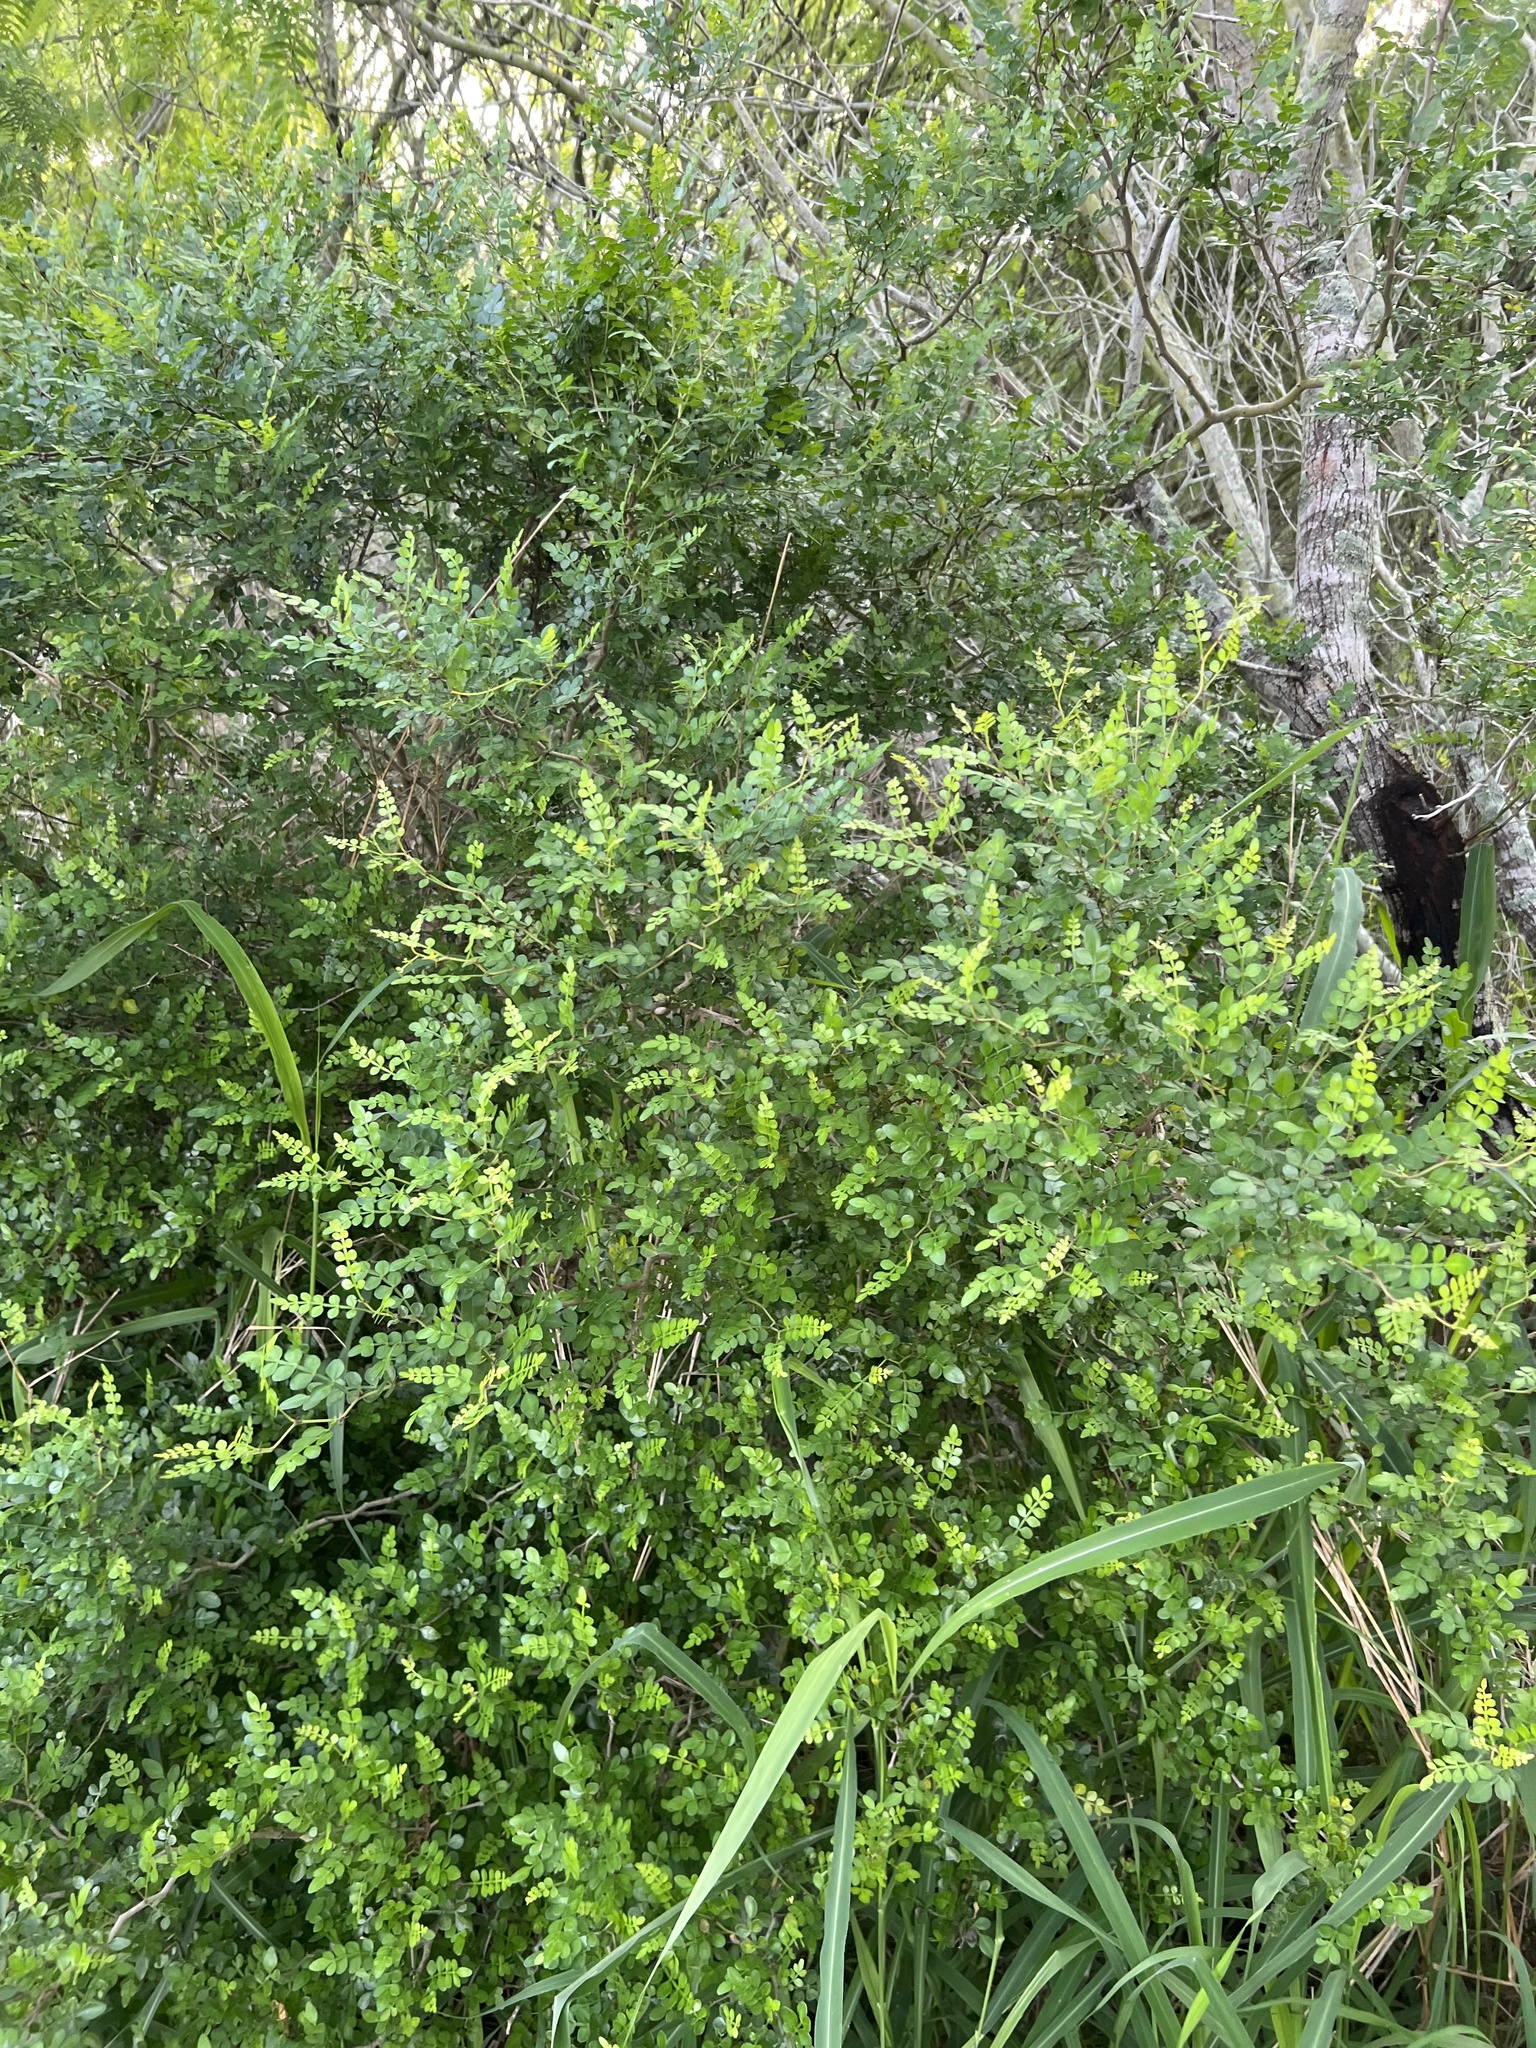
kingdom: Plantae
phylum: Tracheophyta
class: Magnoliopsida
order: Sapindales
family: Rutaceae
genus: Zanthoxylum
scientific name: Zanthoxylum fagara
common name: Lime prickly-ash
